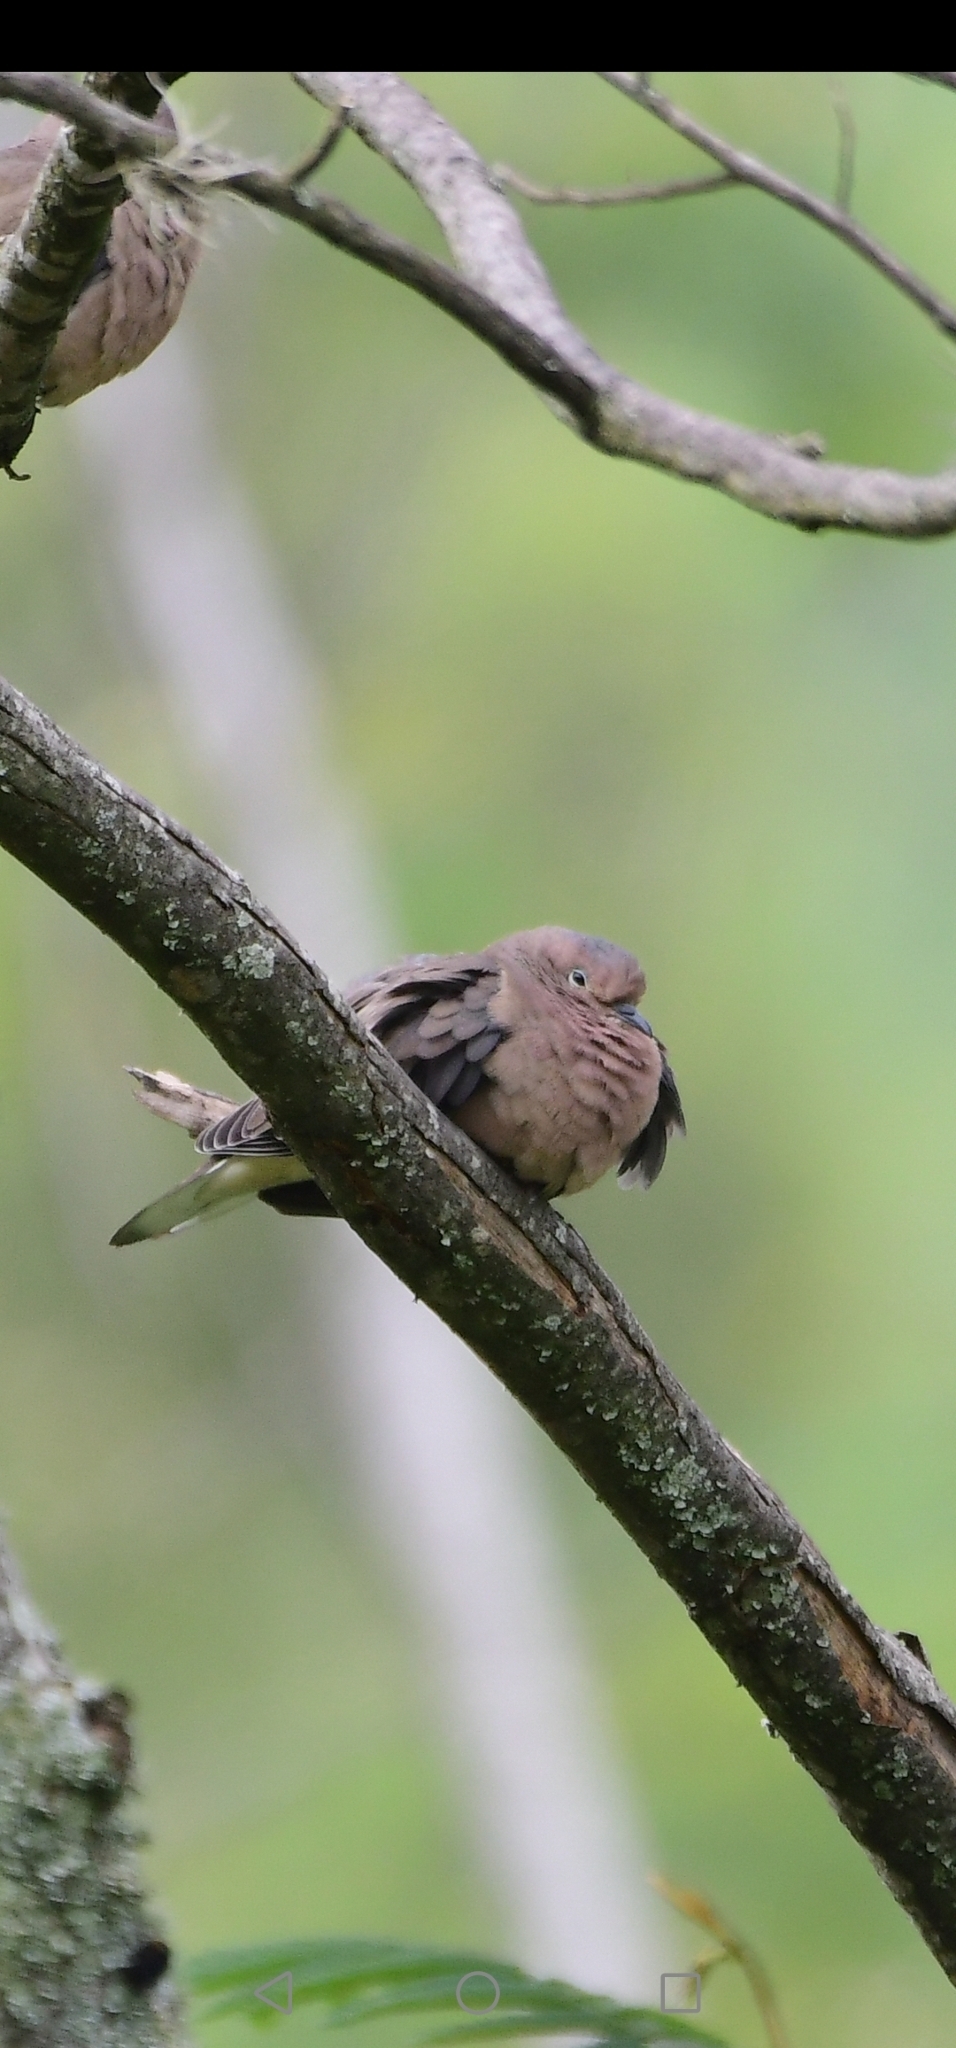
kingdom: Animalia
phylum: Chordata
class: Aves
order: Columbiformes
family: Columbidae
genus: Zenaida
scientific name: Zenaida auriculata
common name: Eared dove
